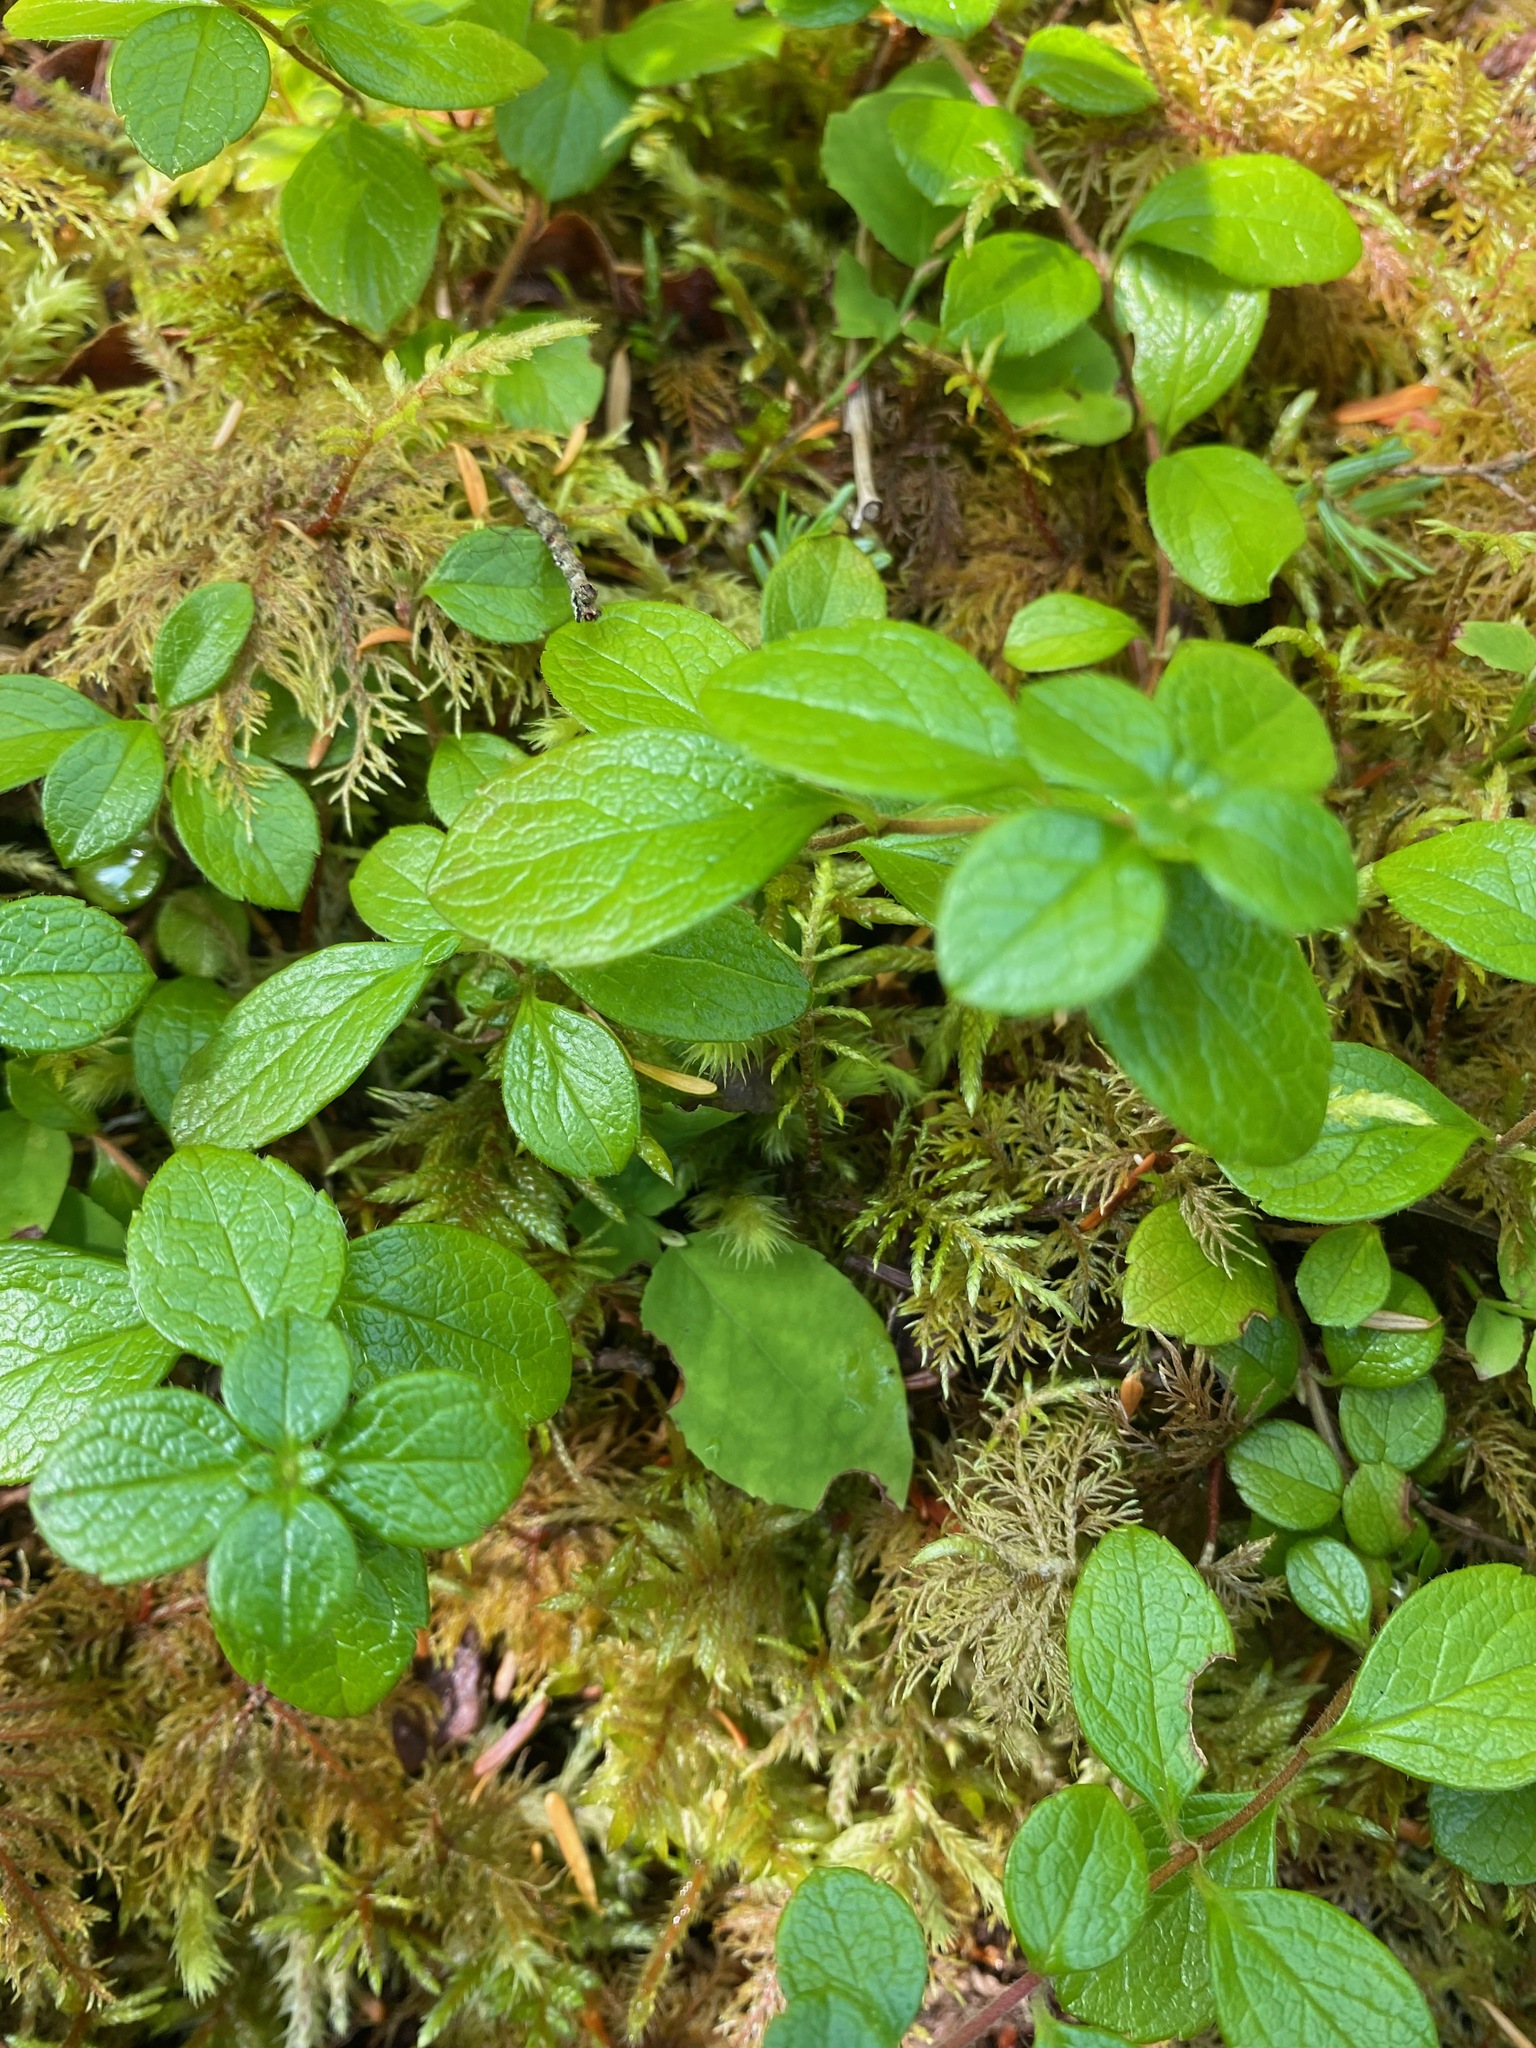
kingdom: Plantae
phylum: Tracheophyta
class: Magnoliopsida
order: Dipsacales
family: Caprifoliaceae
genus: Linnaea
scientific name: Linnaea borealis
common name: Twinflower
